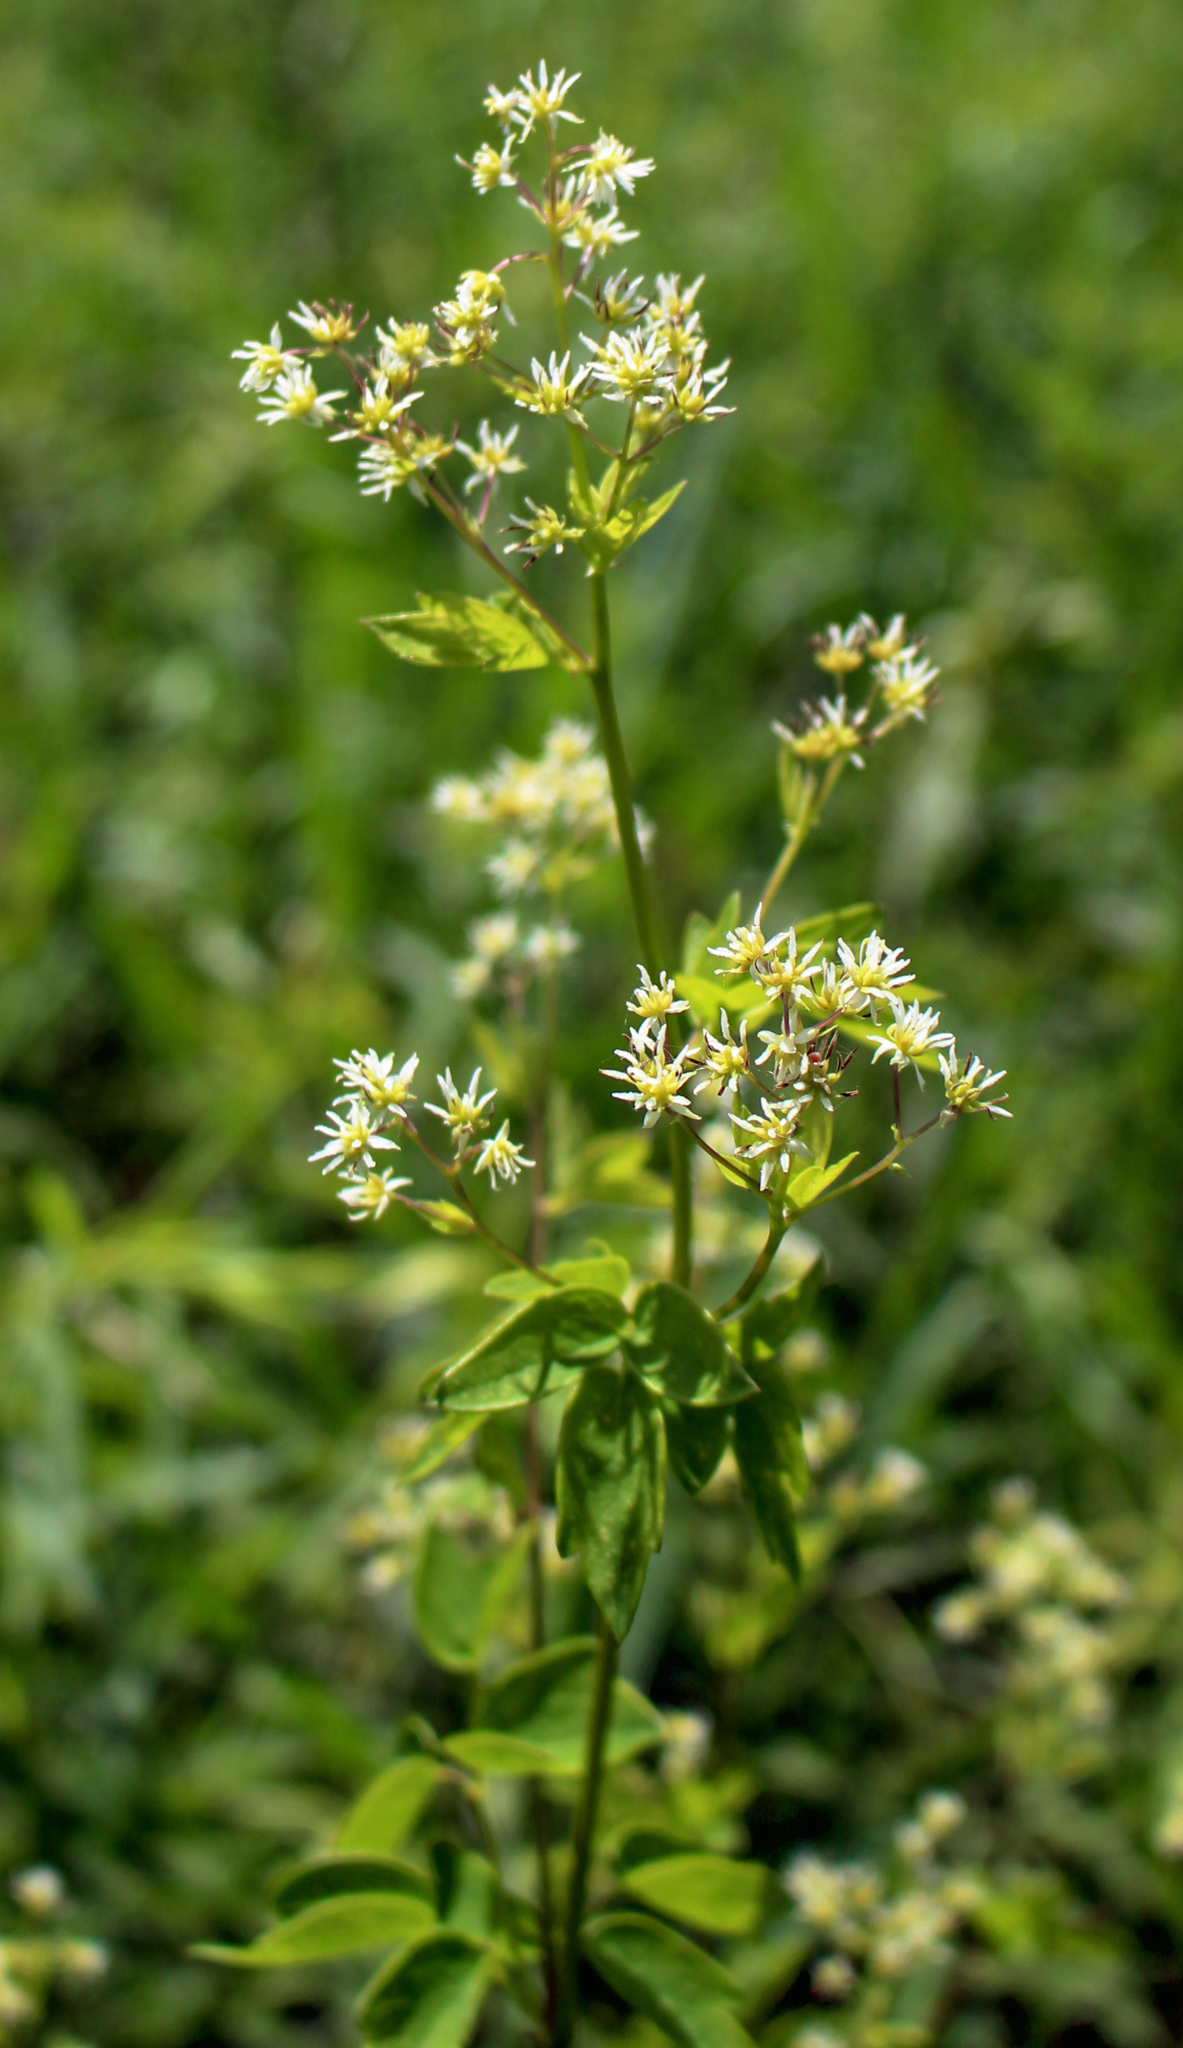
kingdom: Plantae
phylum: Tracheophyta
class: Magnoliopsida
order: Ranunculales
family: Ranunculaceae
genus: Thalictrum
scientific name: Thalictrum dasycarpum
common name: Purple meadow-rue
